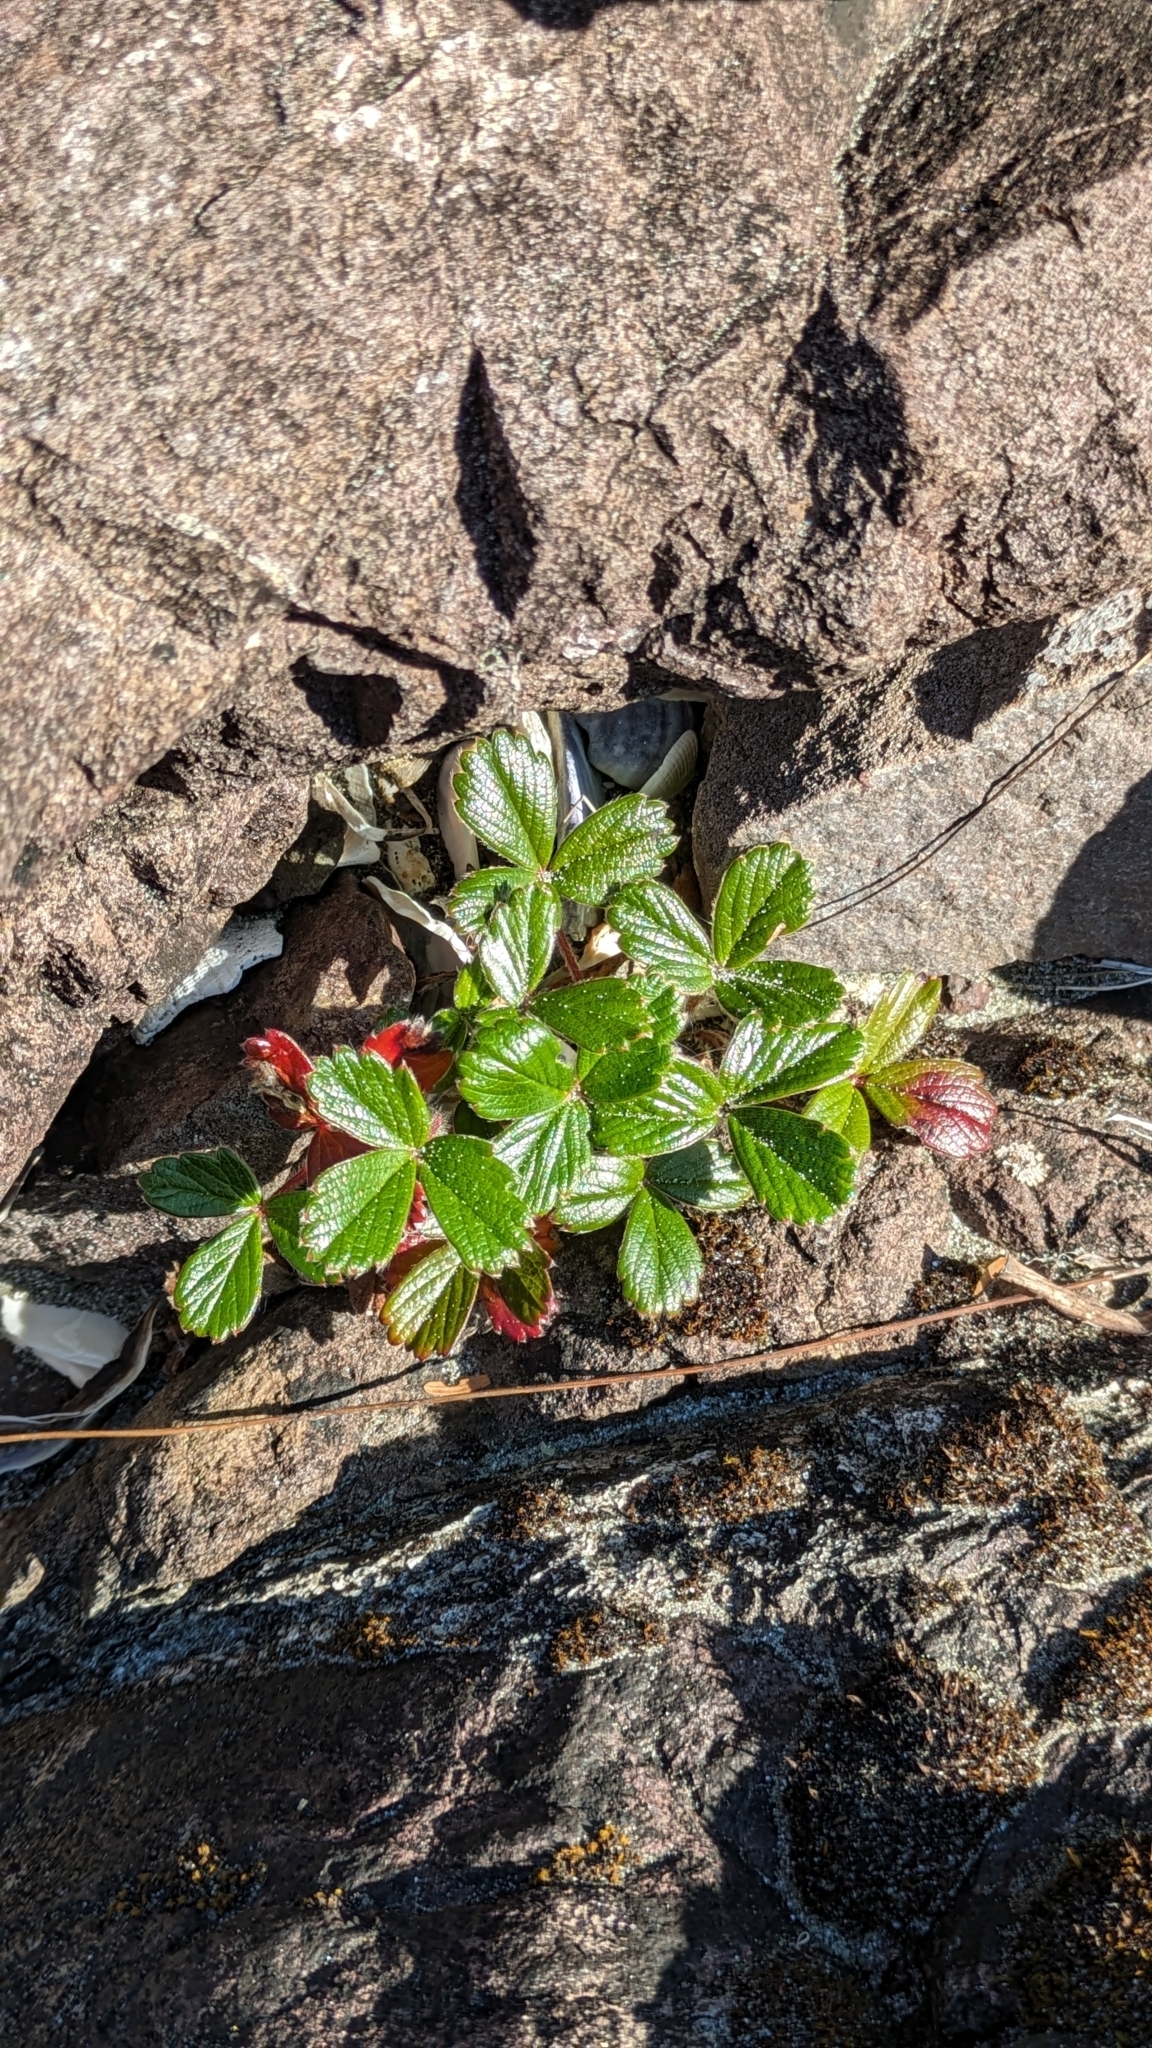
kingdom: Plantae
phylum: Tracheophyta
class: Magnoliopsida
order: Rosales
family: Rosaceae
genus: Fragaria
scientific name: Fragaria chiloensis
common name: Beach strawberry
